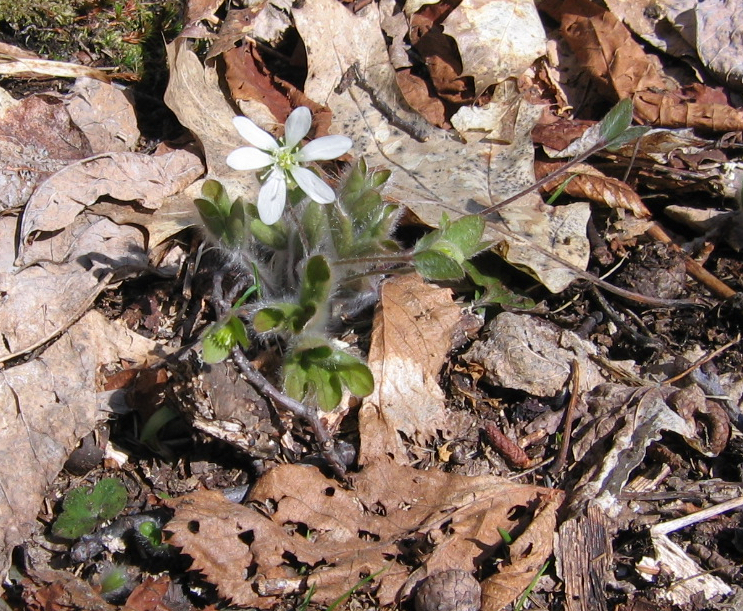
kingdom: Plantae
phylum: Tracheophyta
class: Magnoliopsida
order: Ranunculales
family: Ranunculaceae
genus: Hepatica
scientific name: Hepatica americana
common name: American hepatica
